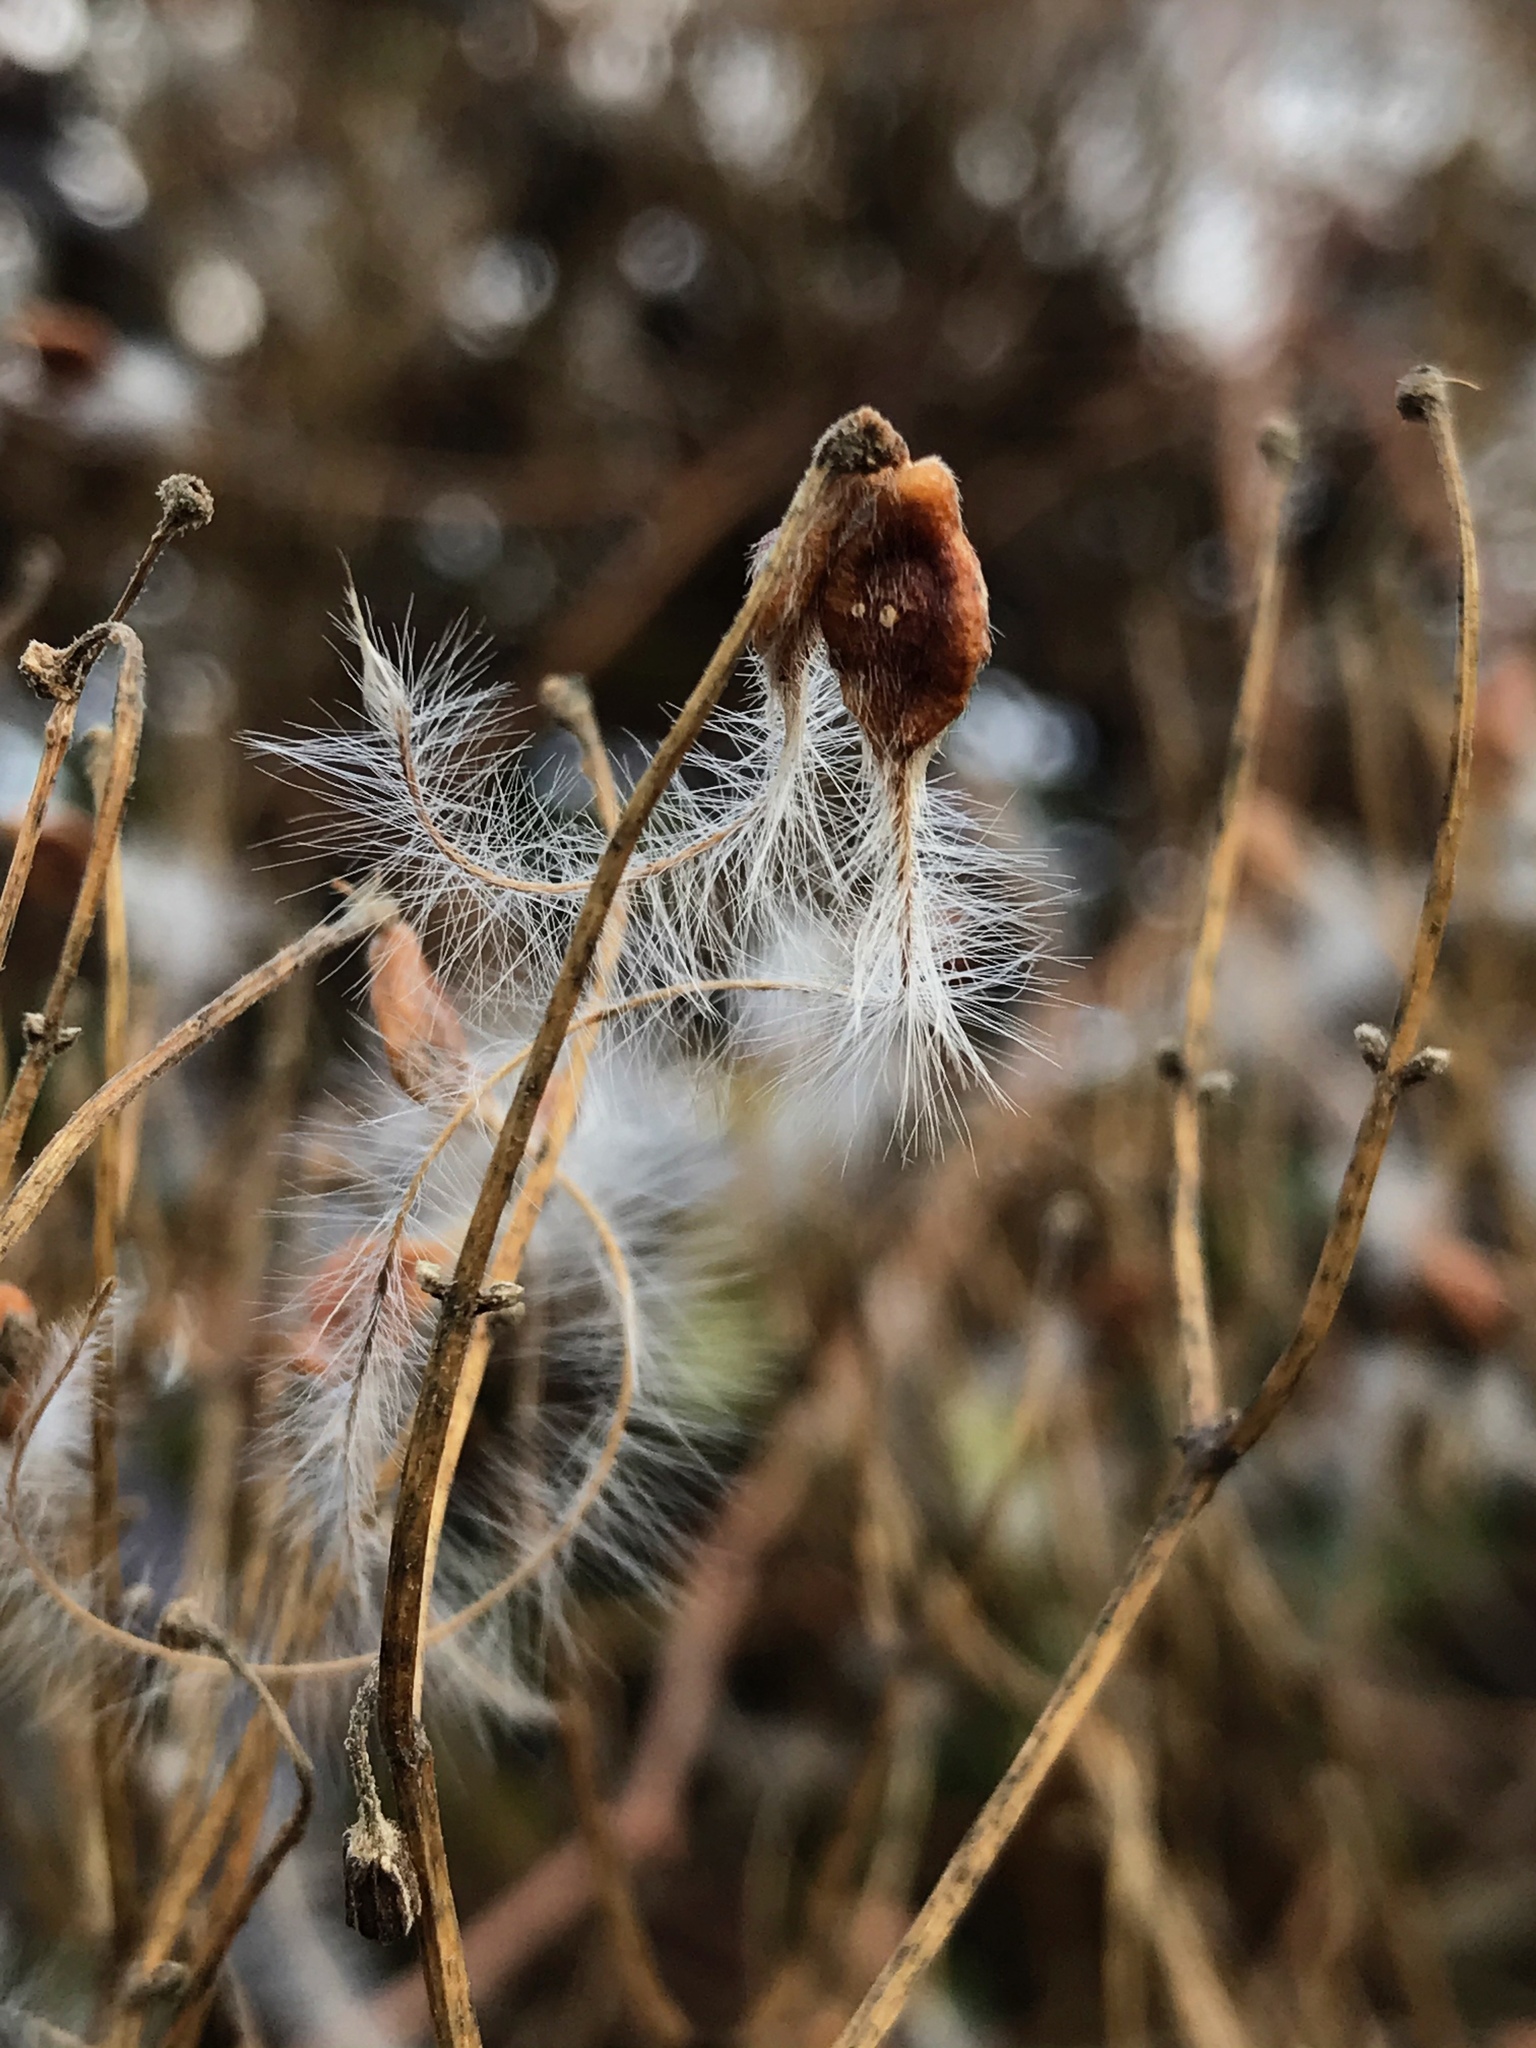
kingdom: Plantae
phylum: Tracheophyta
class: Magnoliopsida
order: Ranunculales
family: Ranunculaceae
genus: Clematis
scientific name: Clematis terniflora
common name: Sweet autumn clematis
